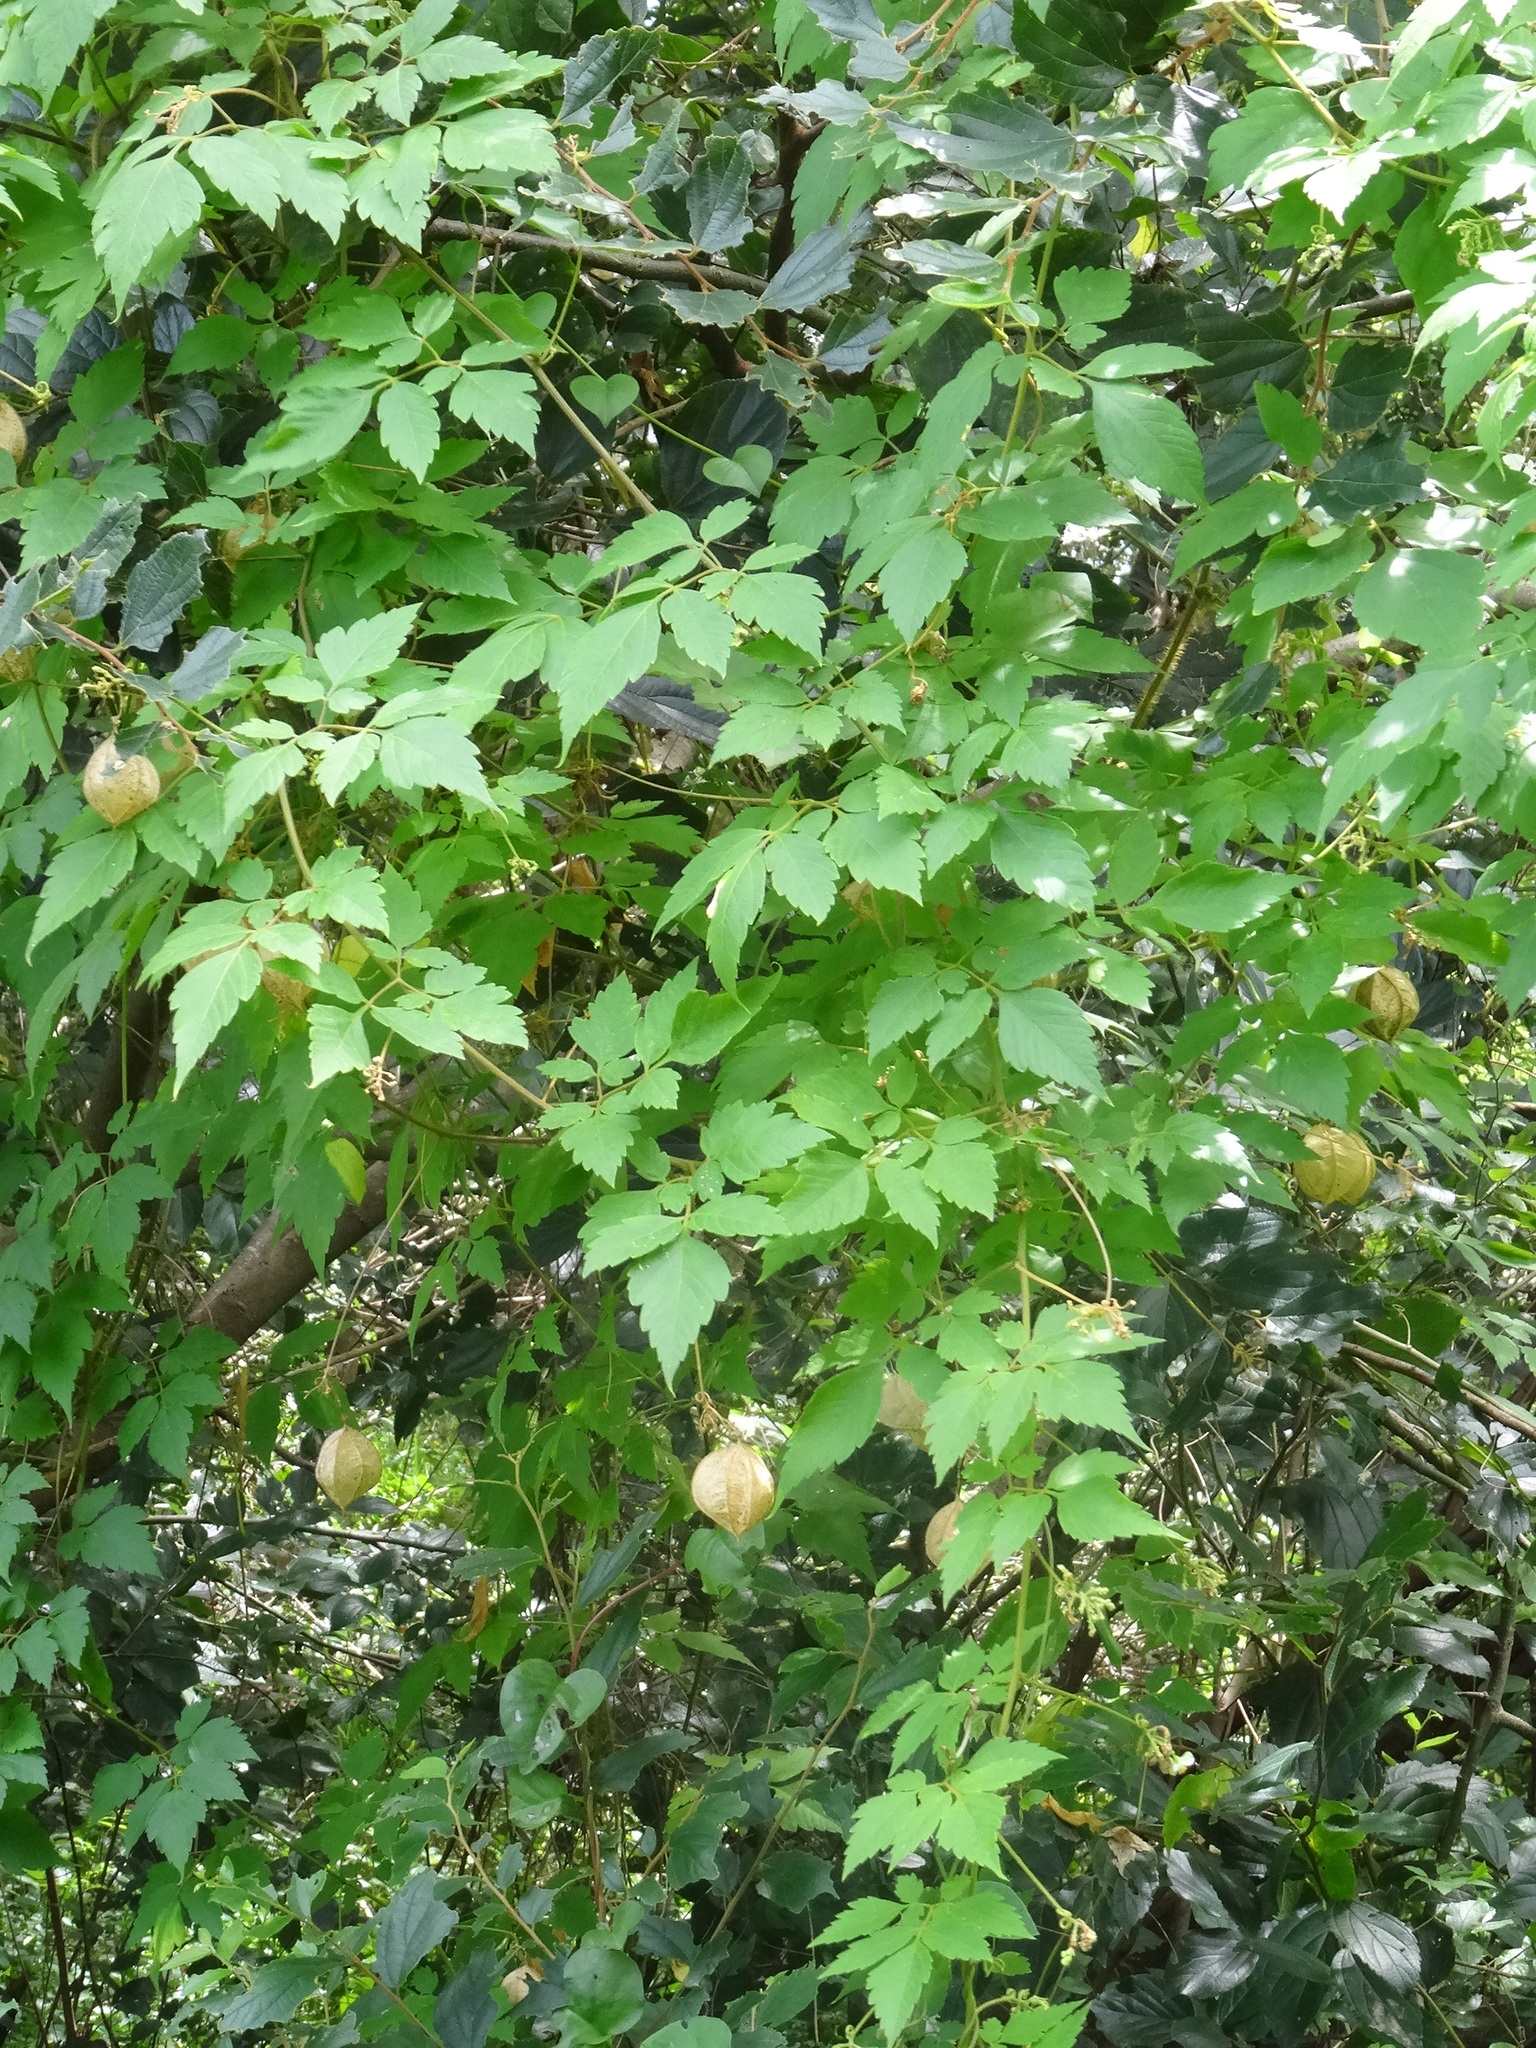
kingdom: Plantae
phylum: Tracheophyta
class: Magnoliopsida
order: Sapindales
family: Sapindaceae
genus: Cardiospermum
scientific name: Cardiospermum grandiflorum
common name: Balloon vine
